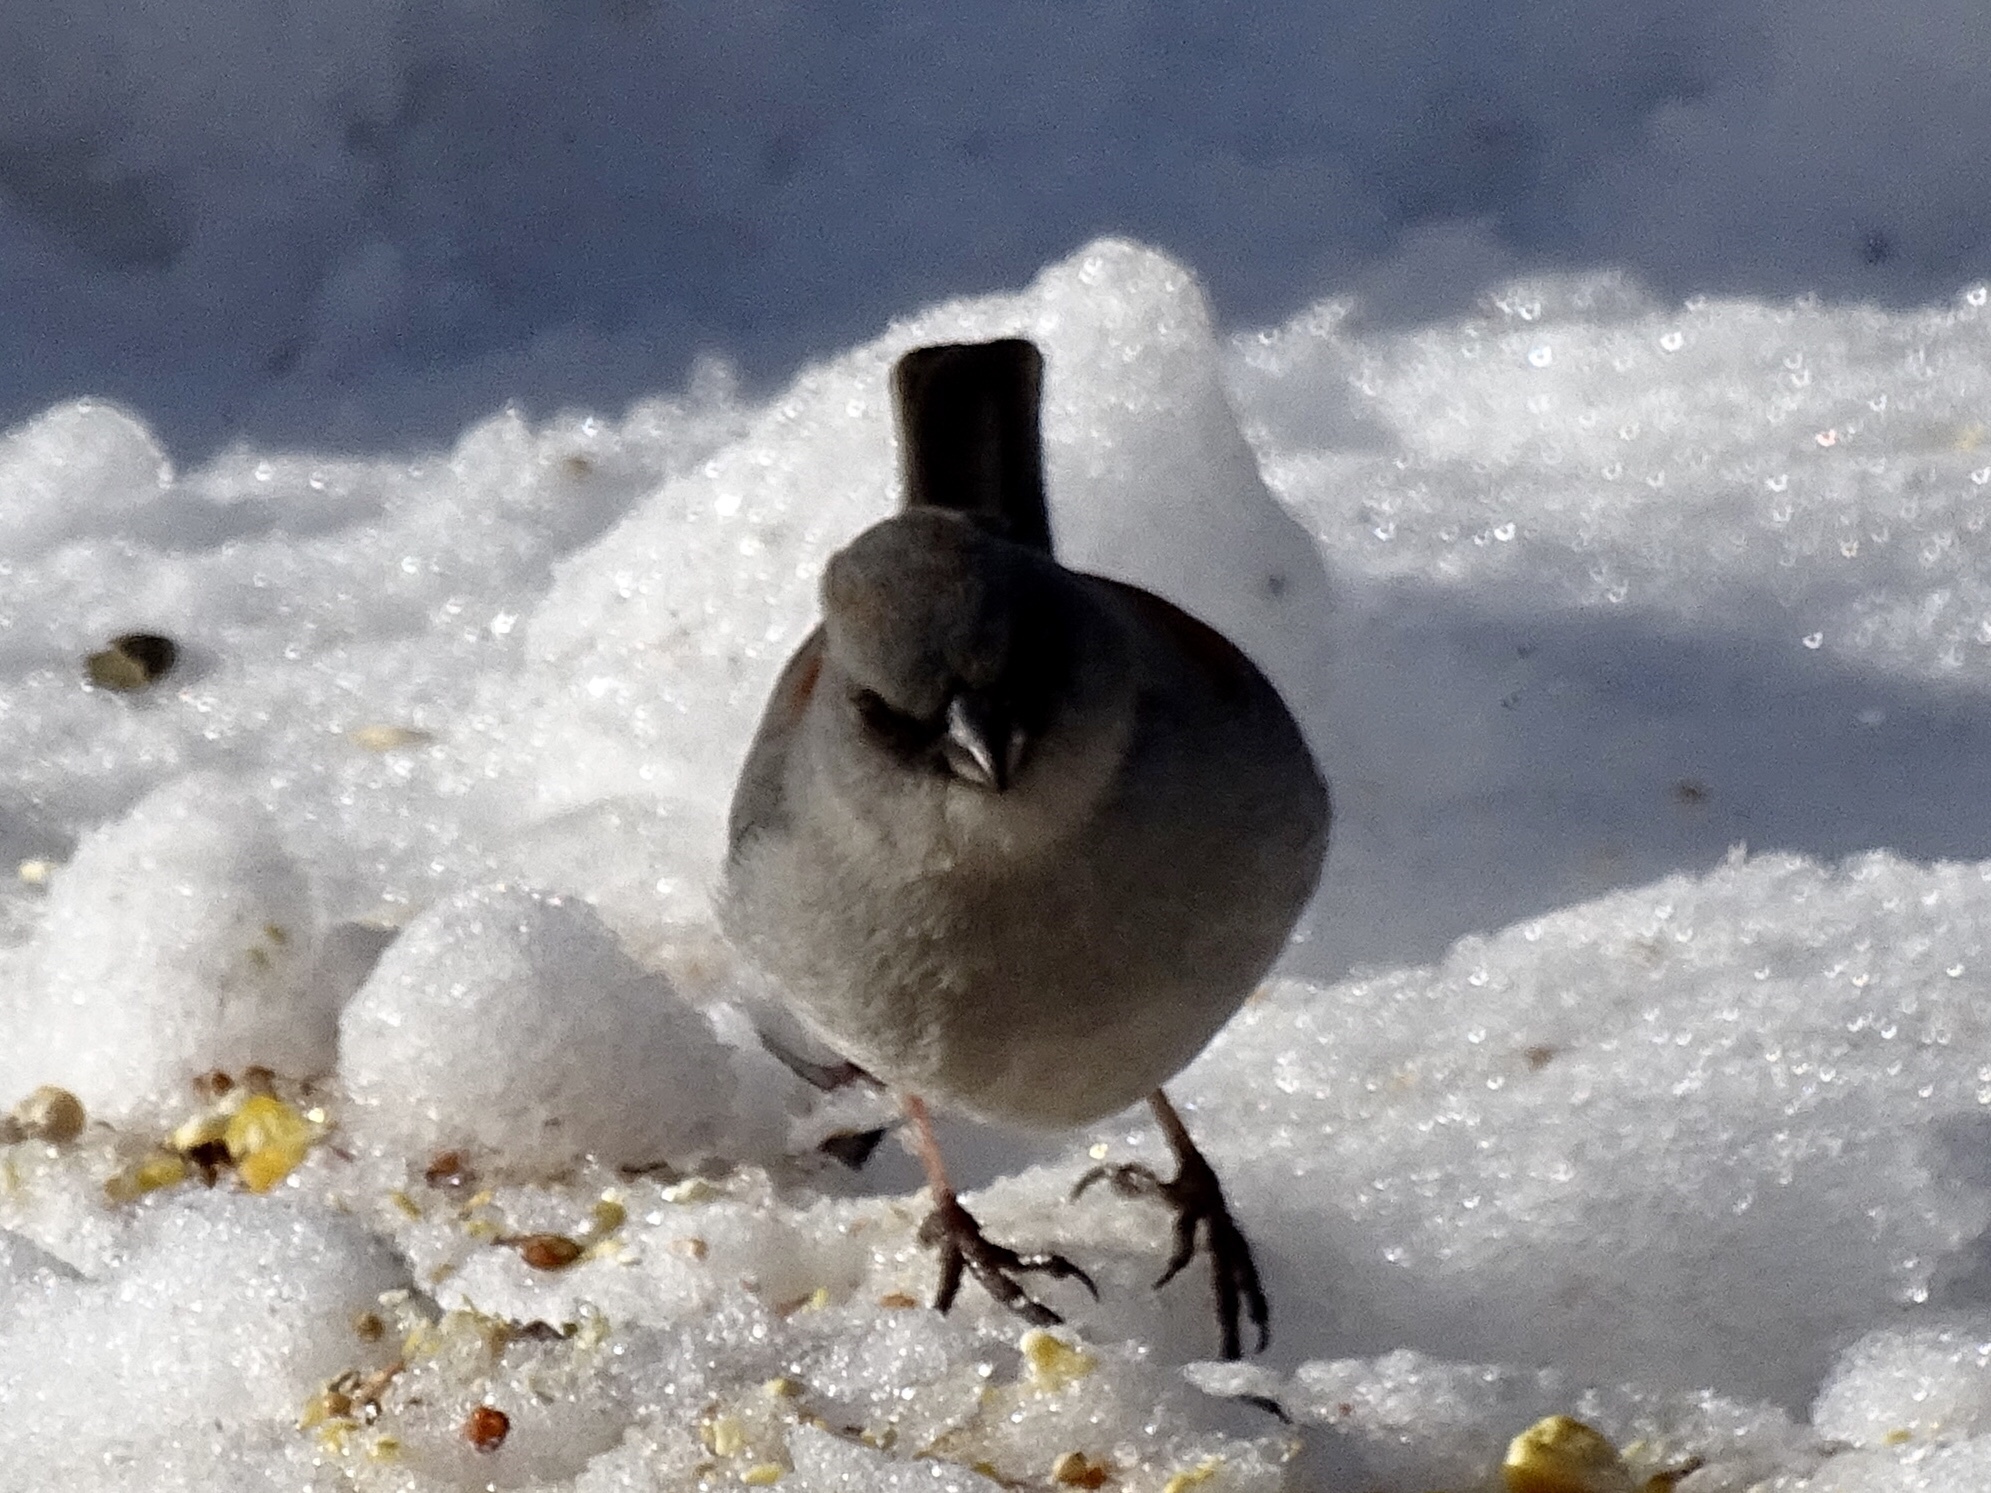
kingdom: Animalia
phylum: Chordata
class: Aves
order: Passeriformes
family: Passerellidae
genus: Junco
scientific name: Junco hyemalis
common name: Dark-eyed junco
